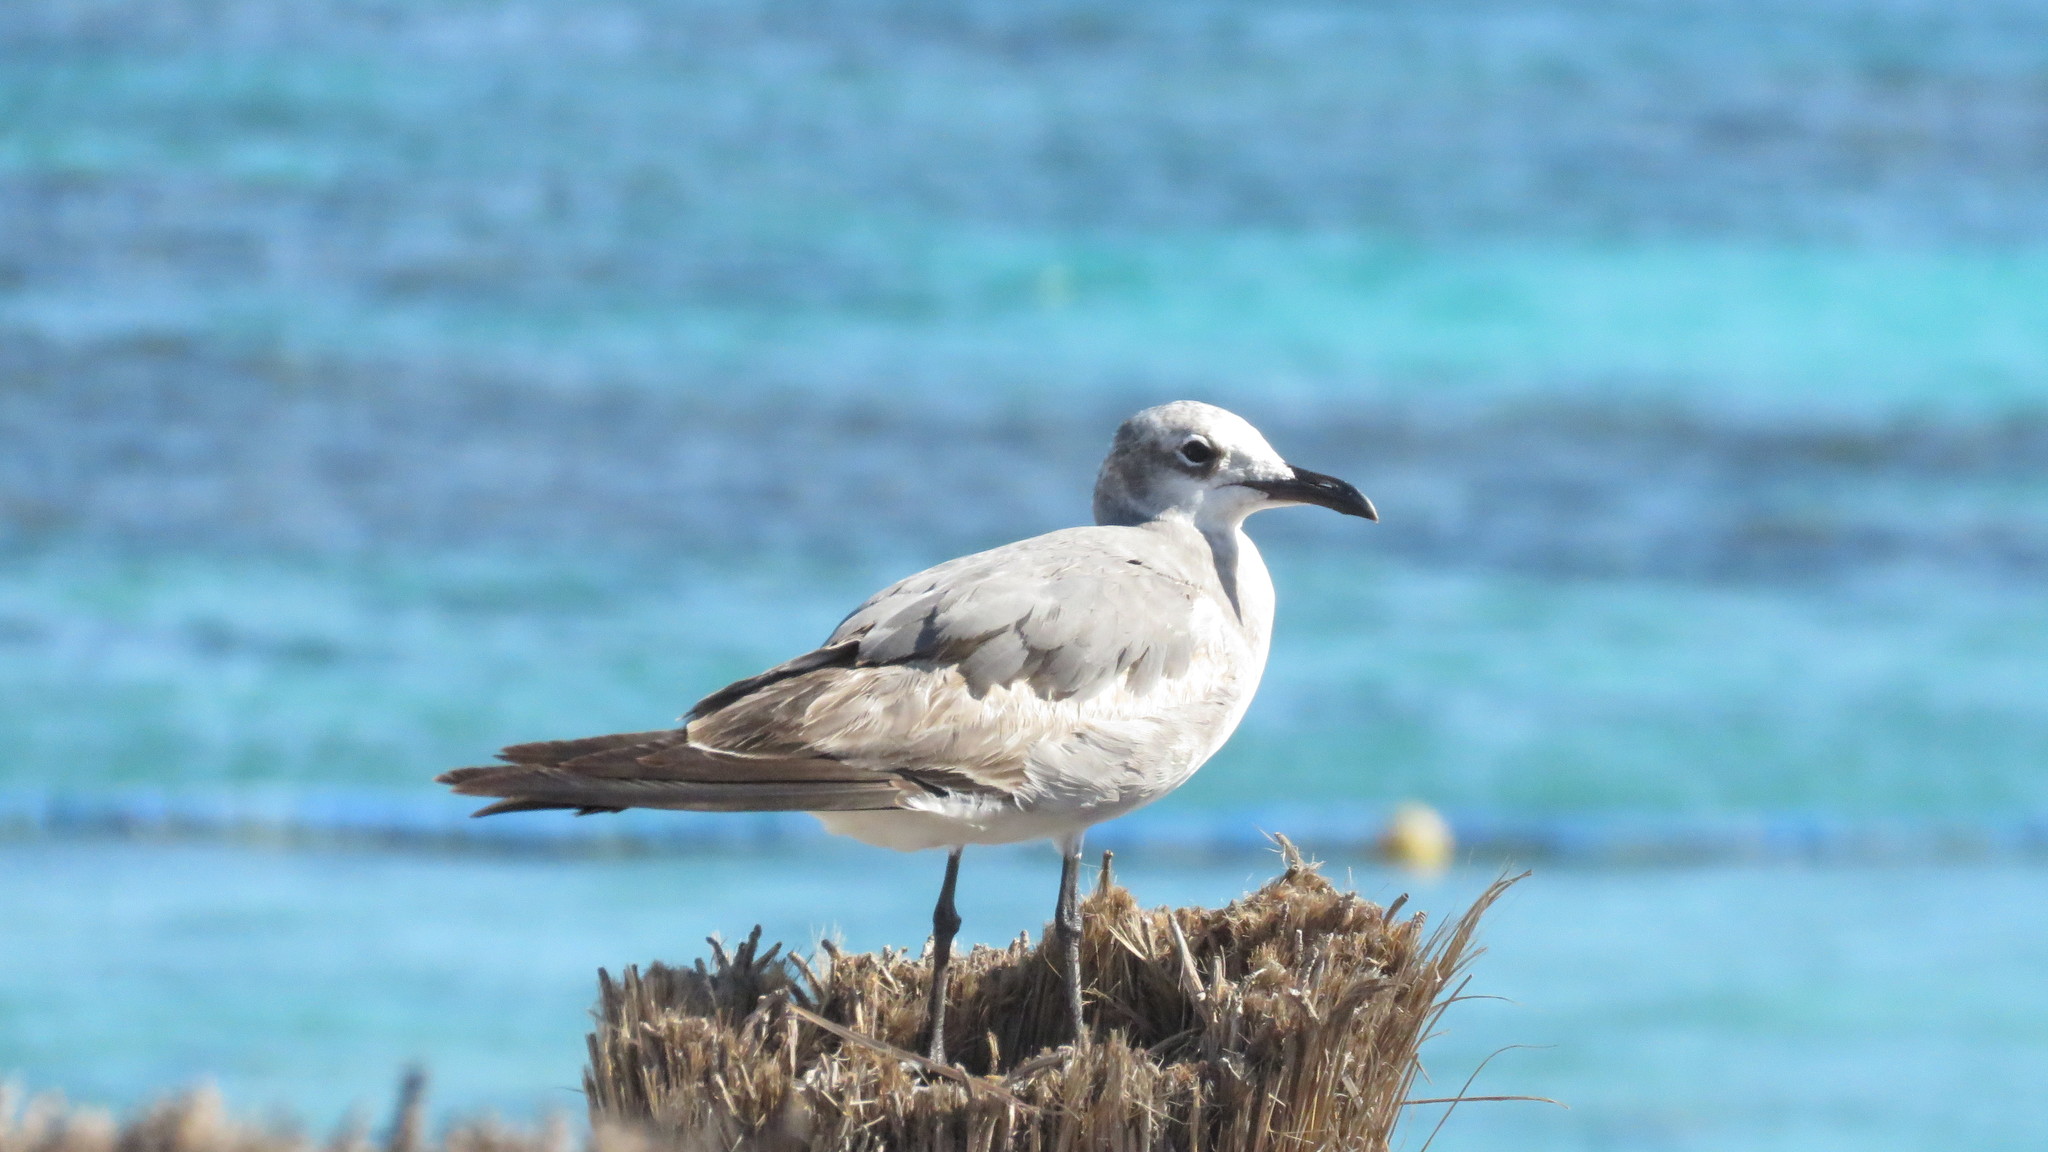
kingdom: Animalia
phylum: Chordata
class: Aves
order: Charadriiformes
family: Laridae
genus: Leucophaeus
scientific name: Leucophaeus atricilla
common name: Laughing gull
